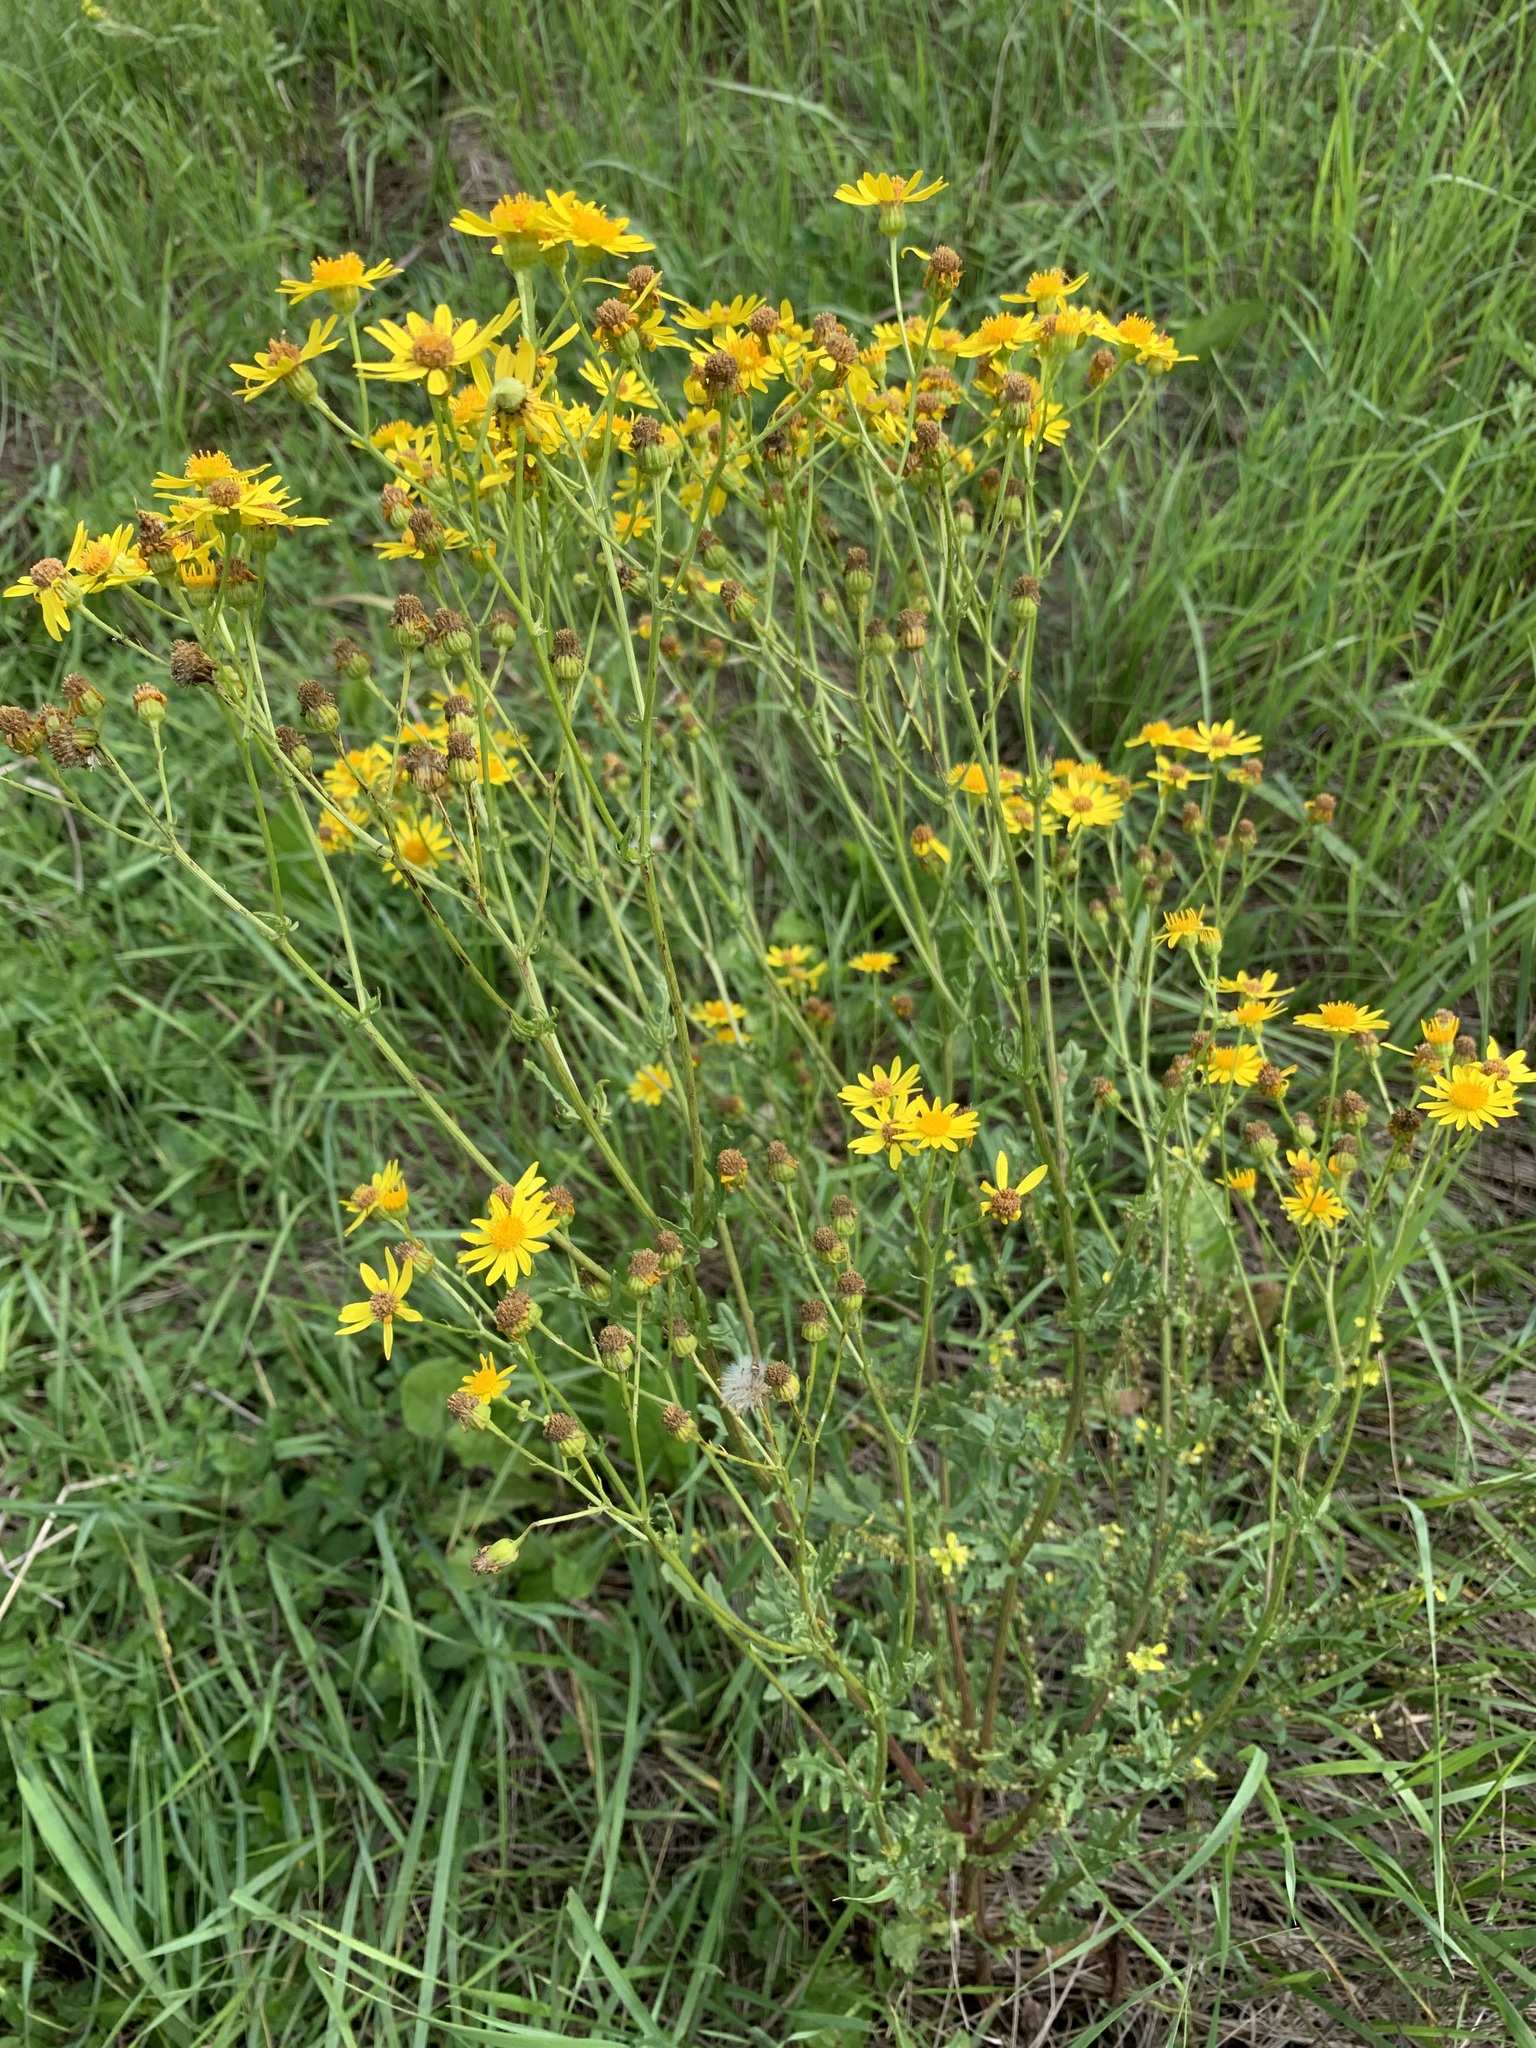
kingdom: Plantae
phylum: Tracheophyta
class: Magnoliopsida
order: Asterales
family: Asteraceae
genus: Jacobaea
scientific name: Jacobaea vulgaris
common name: Stinking willie
